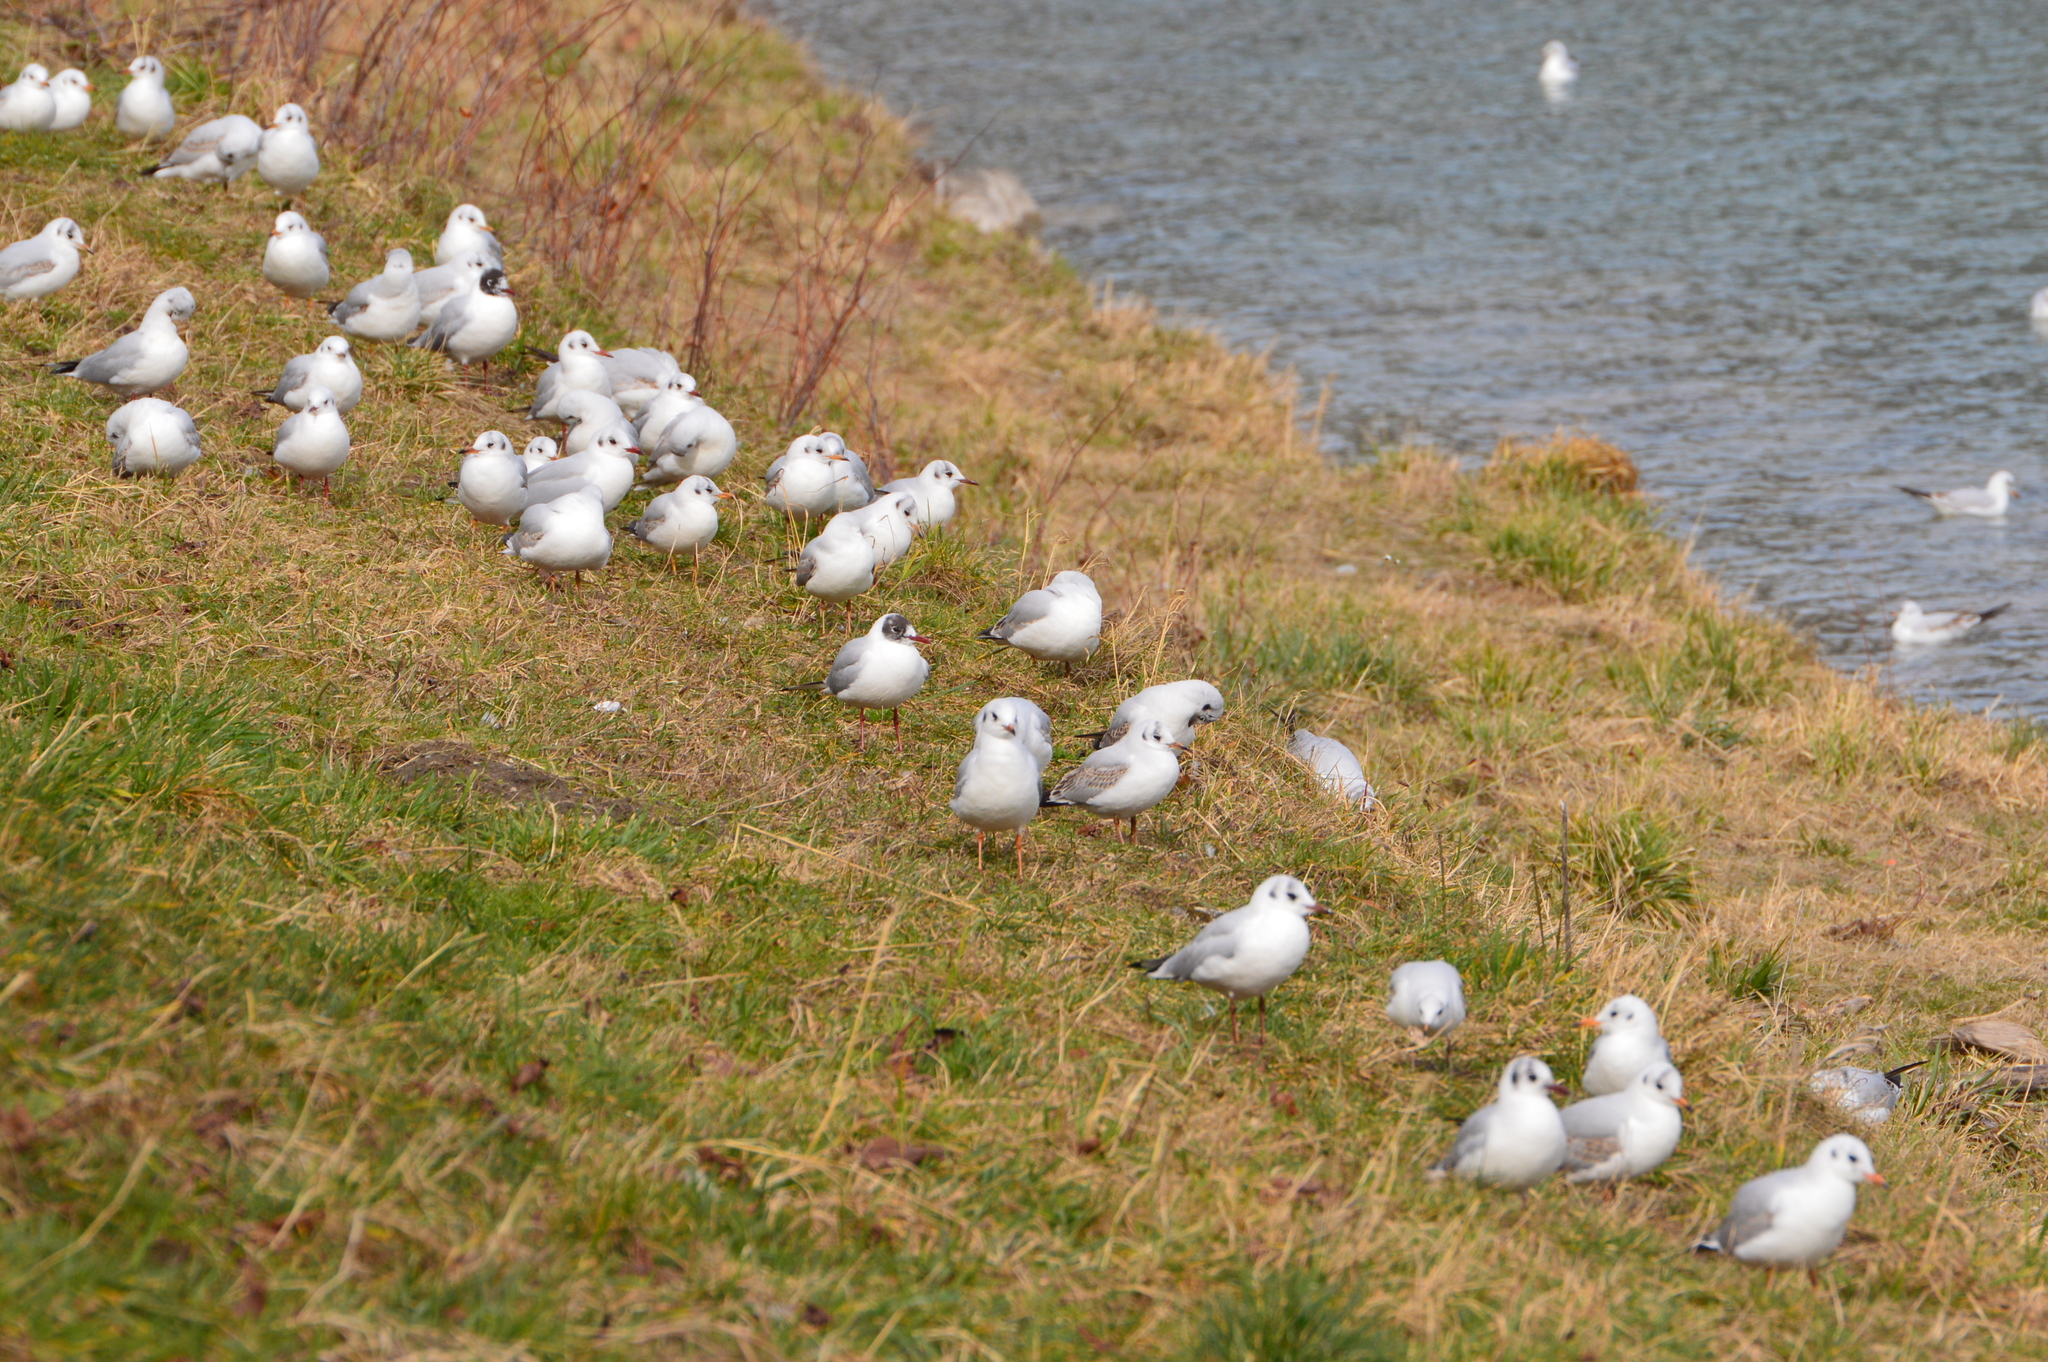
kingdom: Animalia
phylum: Chordata
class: Aves
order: Charadriiformes
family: Laridae
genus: Chroicocephalus
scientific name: Chroicocephalus ridibundus
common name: Black-headed gull
